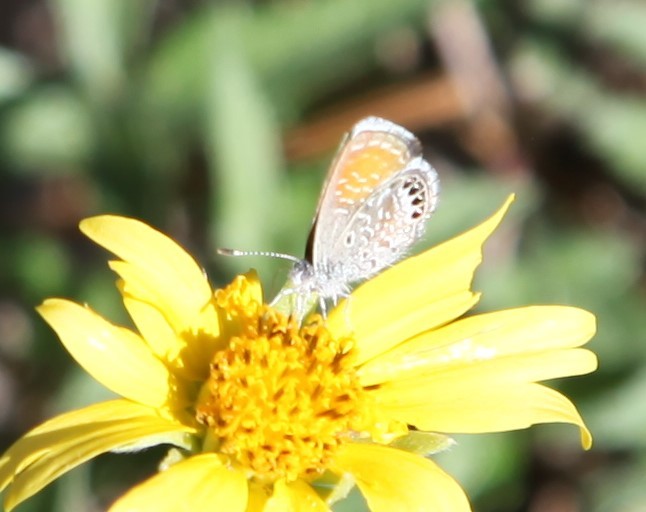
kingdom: Animalia
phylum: Arthropoda
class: Insecta
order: Lepidoptera
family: Lycaenidae
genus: Brephidium
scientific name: Brephidium exilis
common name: Pygmy blue
